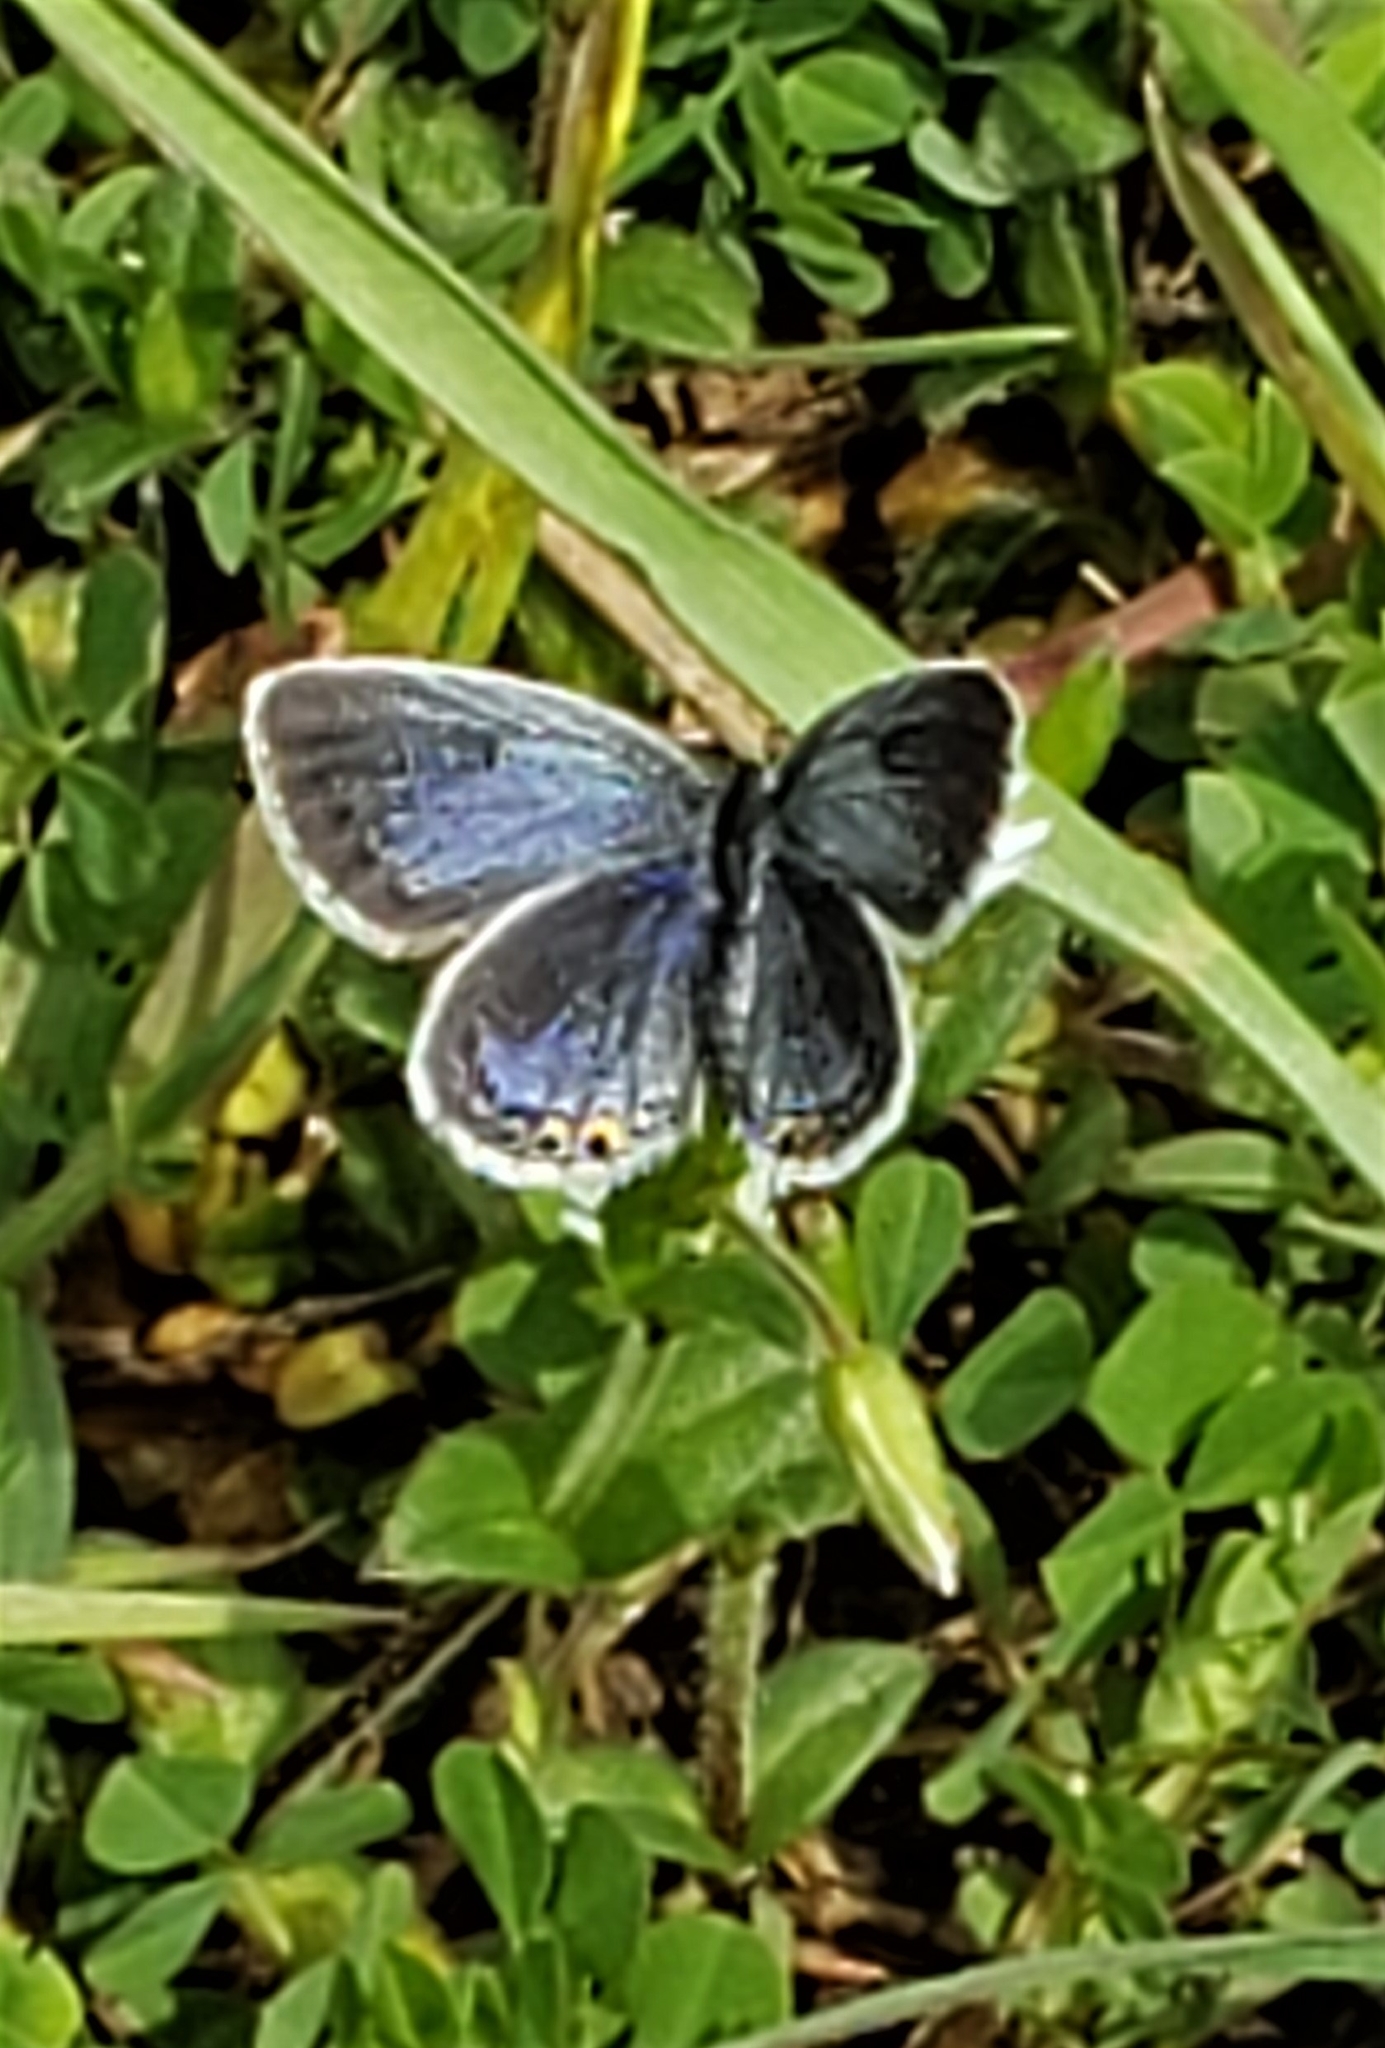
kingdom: Animalia
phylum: Arthropoda
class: Insecta
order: Lepidoptera
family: Lycaenidae
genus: Elkalyce
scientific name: Elkalyce comyntas
